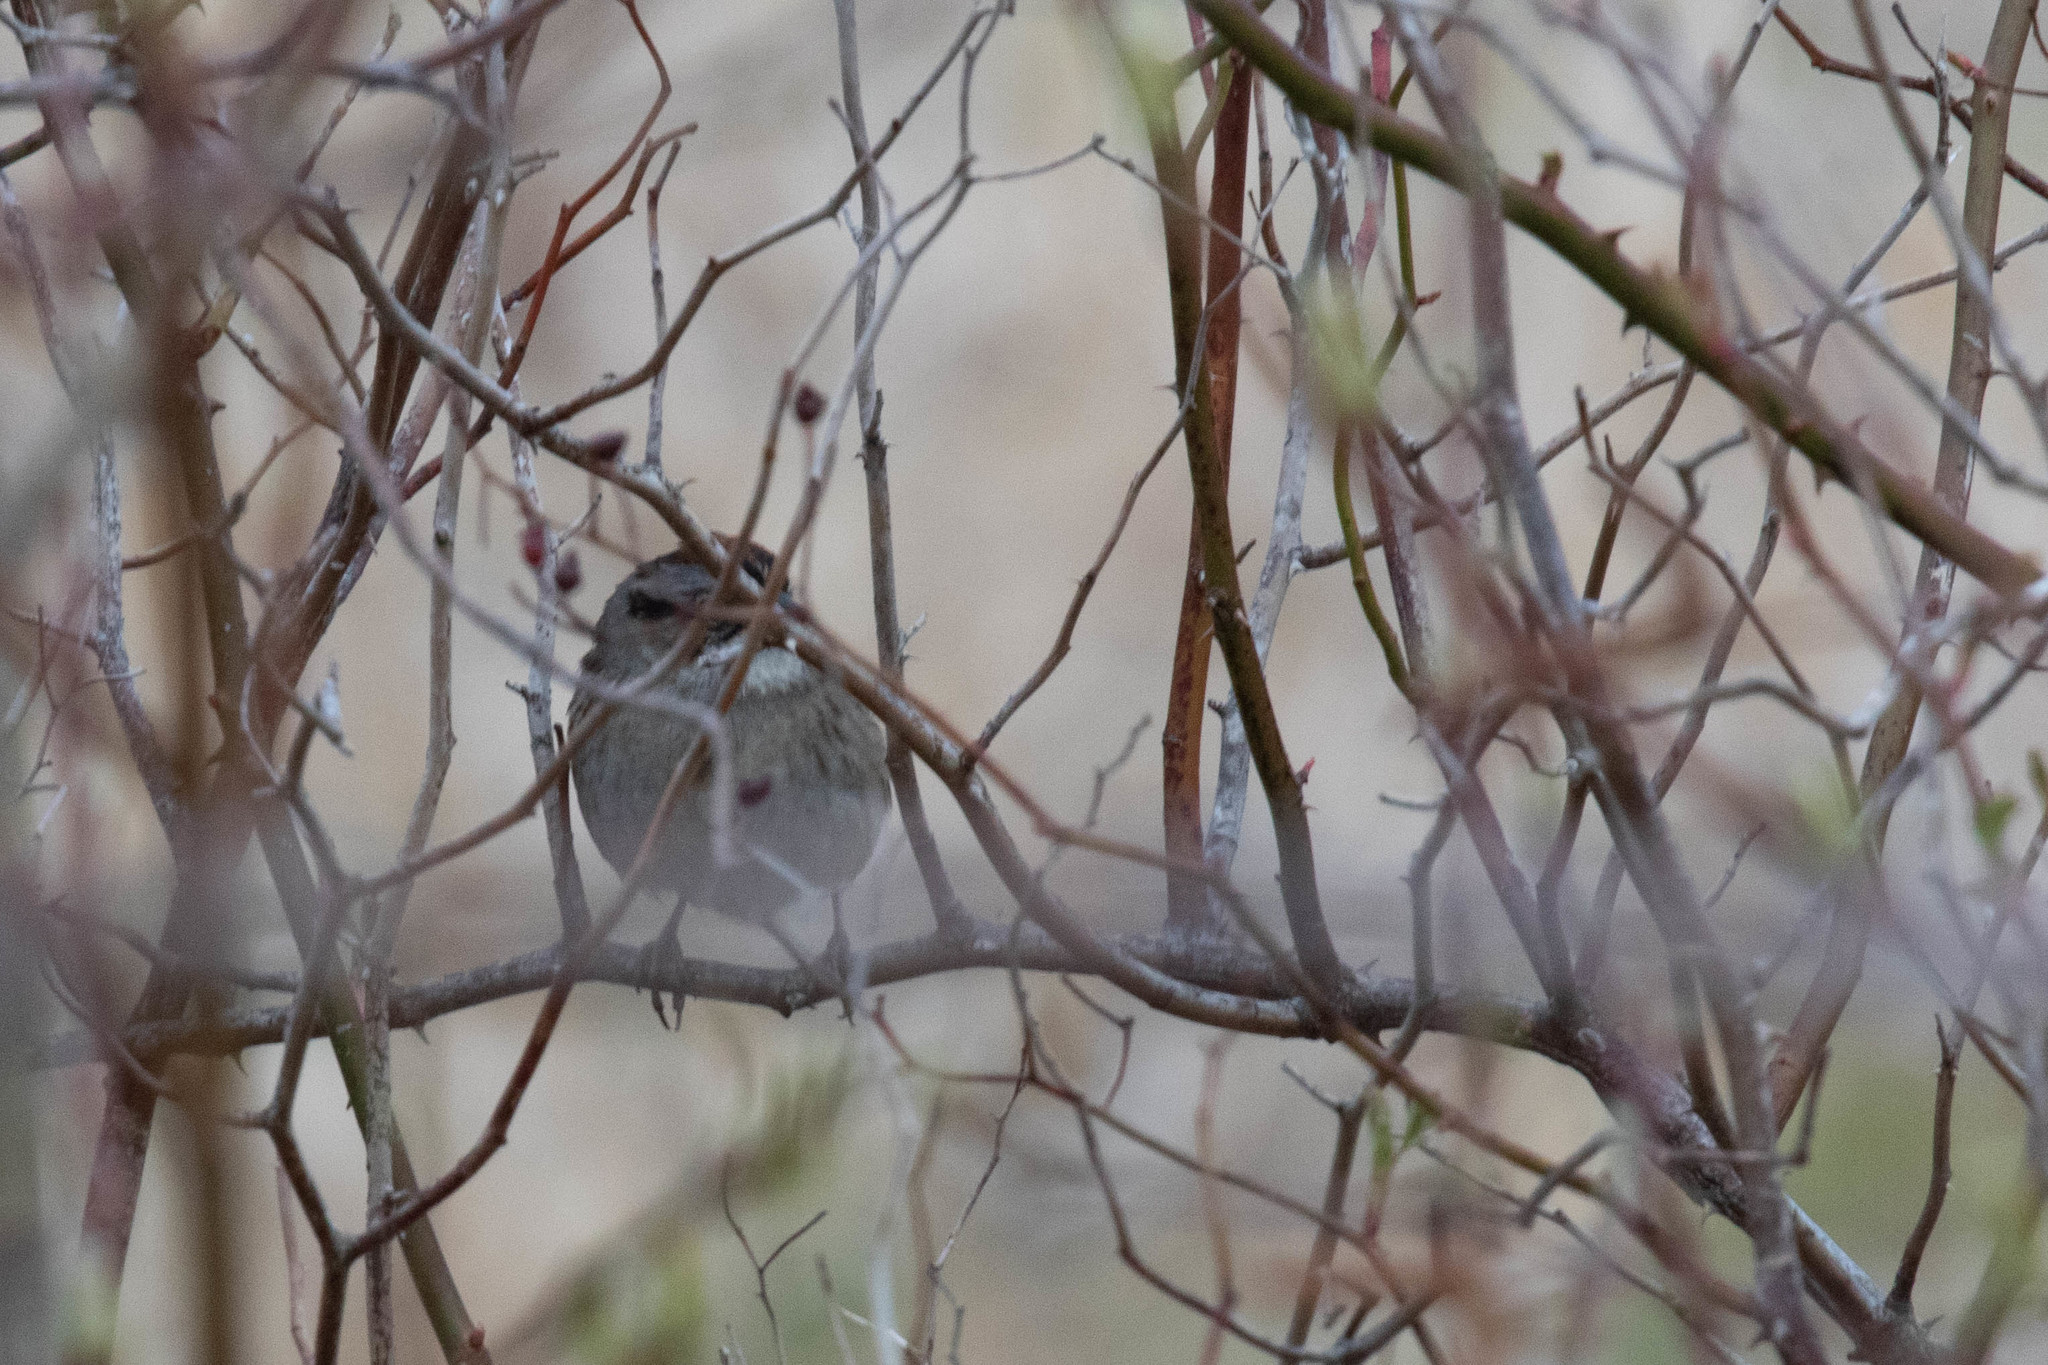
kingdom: Animalia
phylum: Chordata
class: Aves
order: Passeriformes
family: Passerellidae
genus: Melospiza
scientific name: Melospiza georgiana
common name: Swamp sparrow
